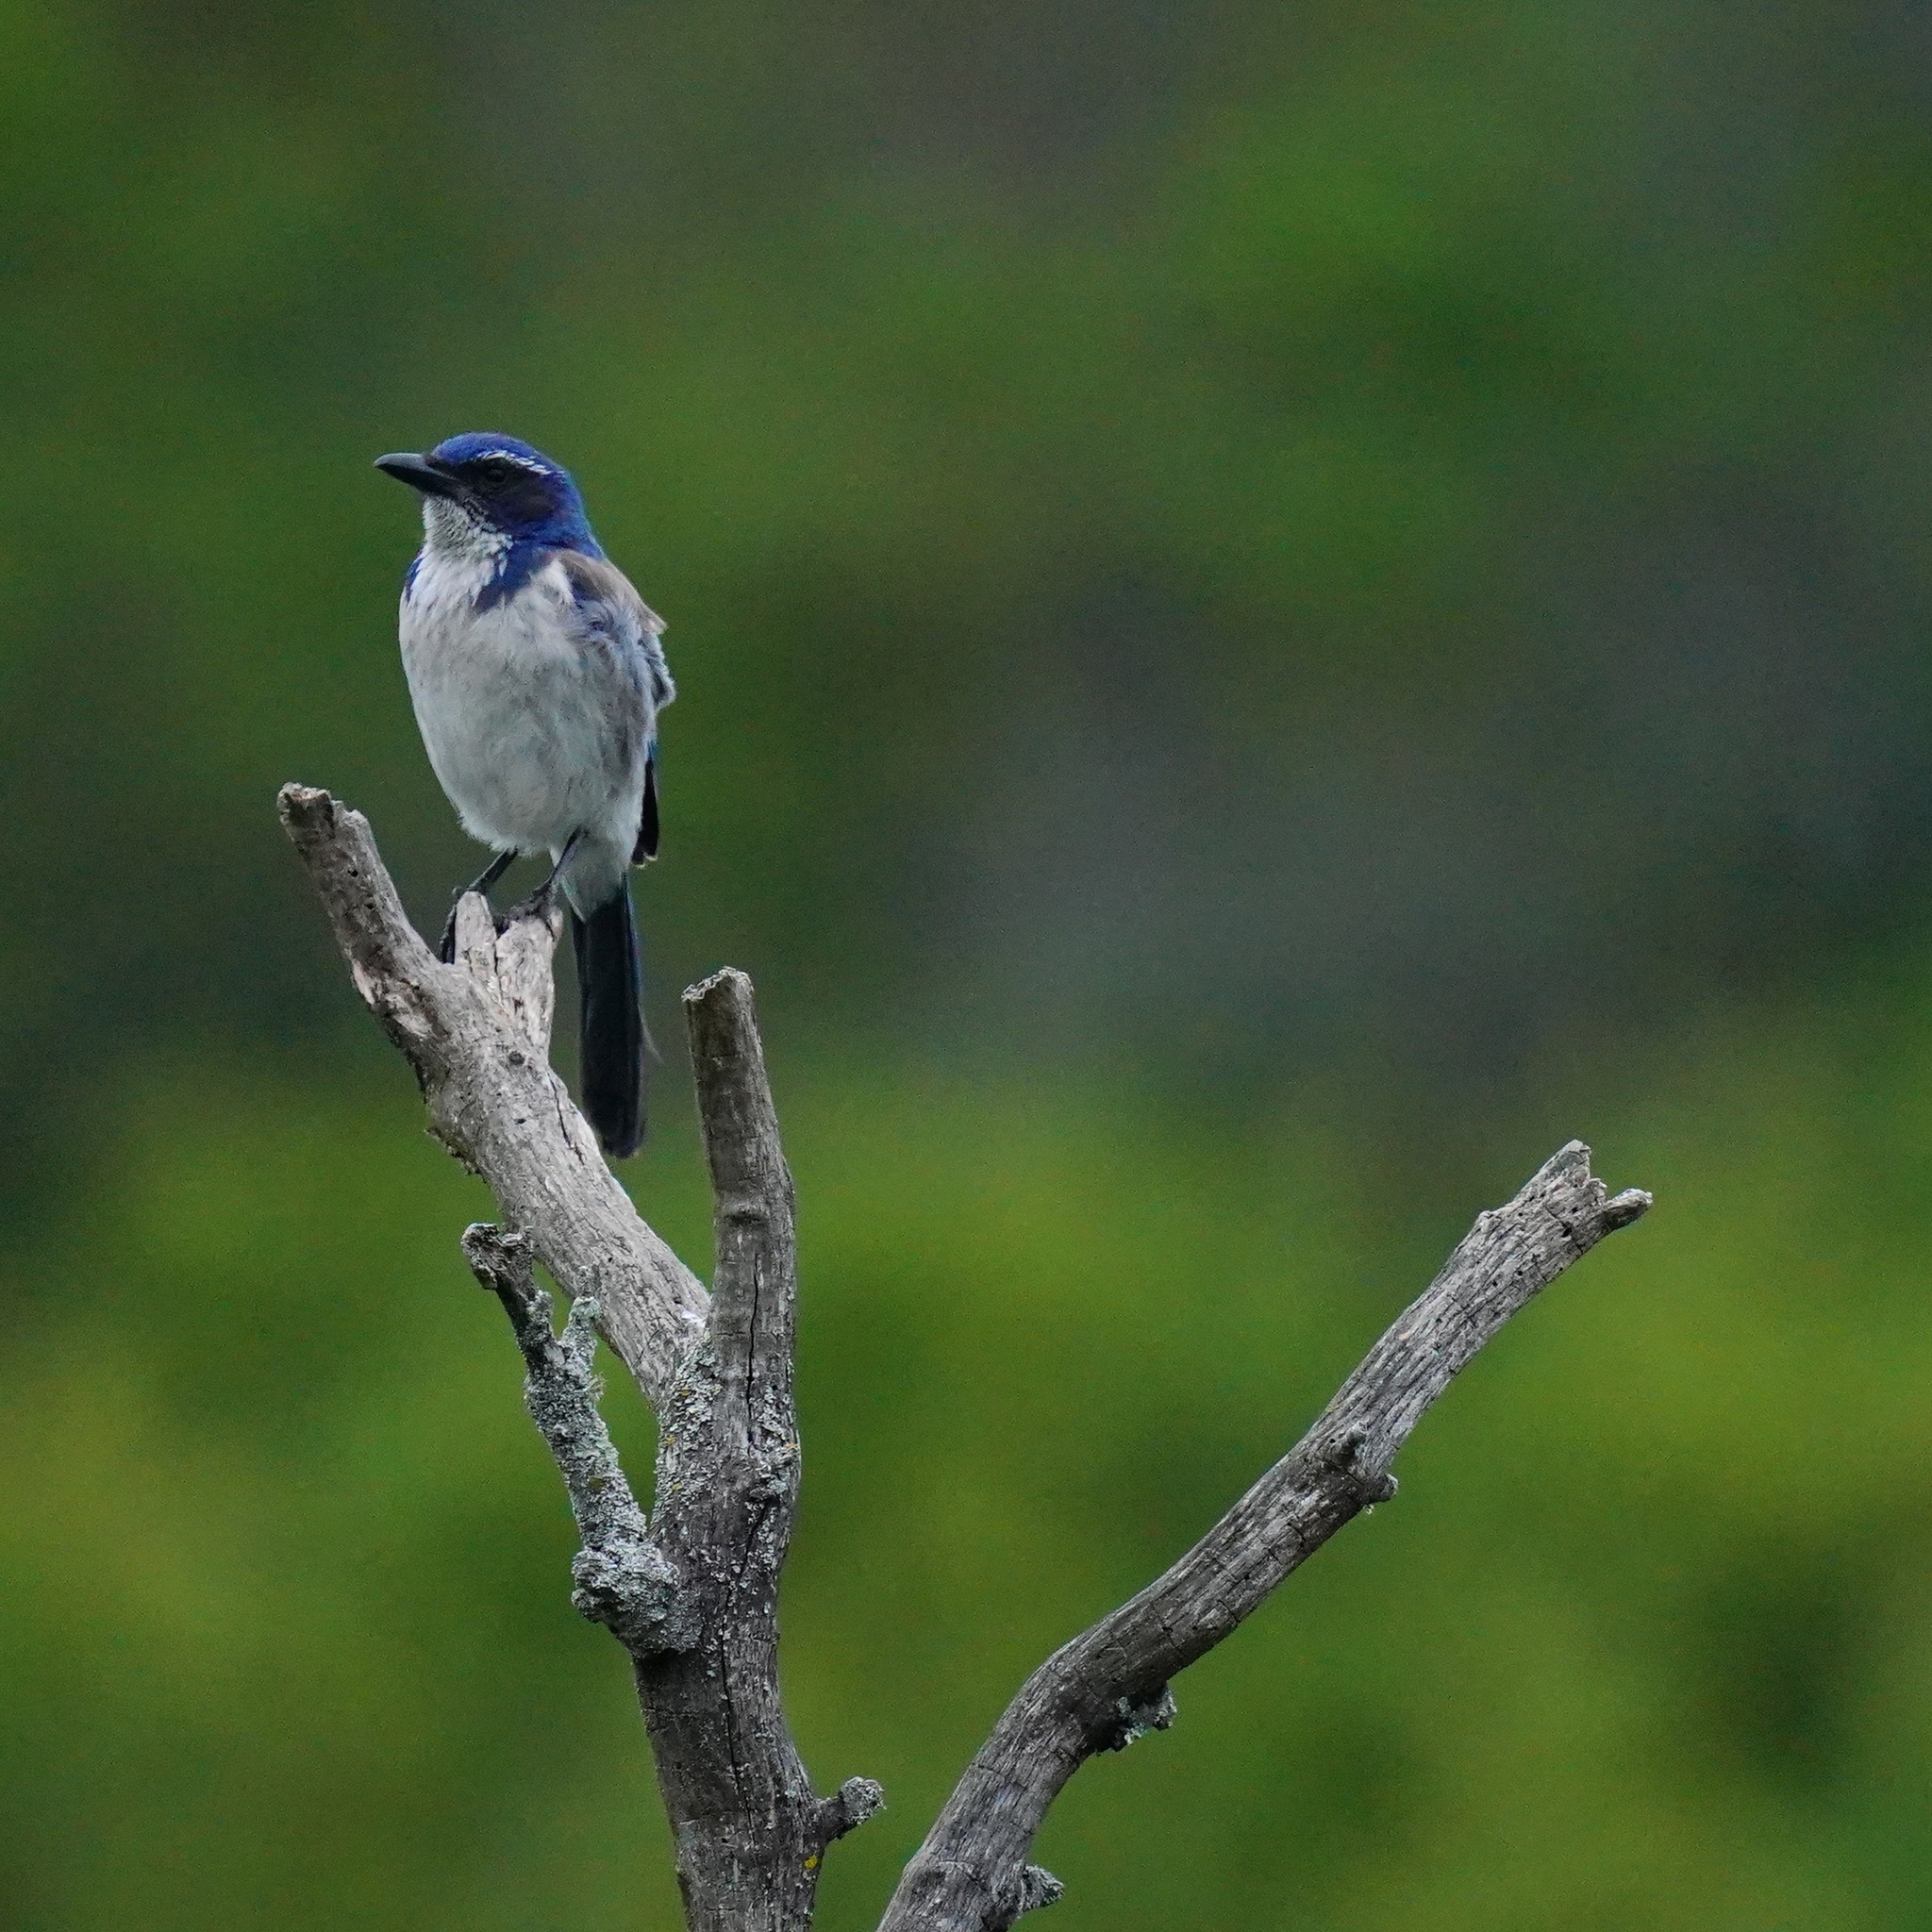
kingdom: Animalia
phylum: Chordata
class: Aves
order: Passeriformes
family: Corvidae
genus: Aphelocoma
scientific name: Aphelocoma californica
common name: California scrub-jay
